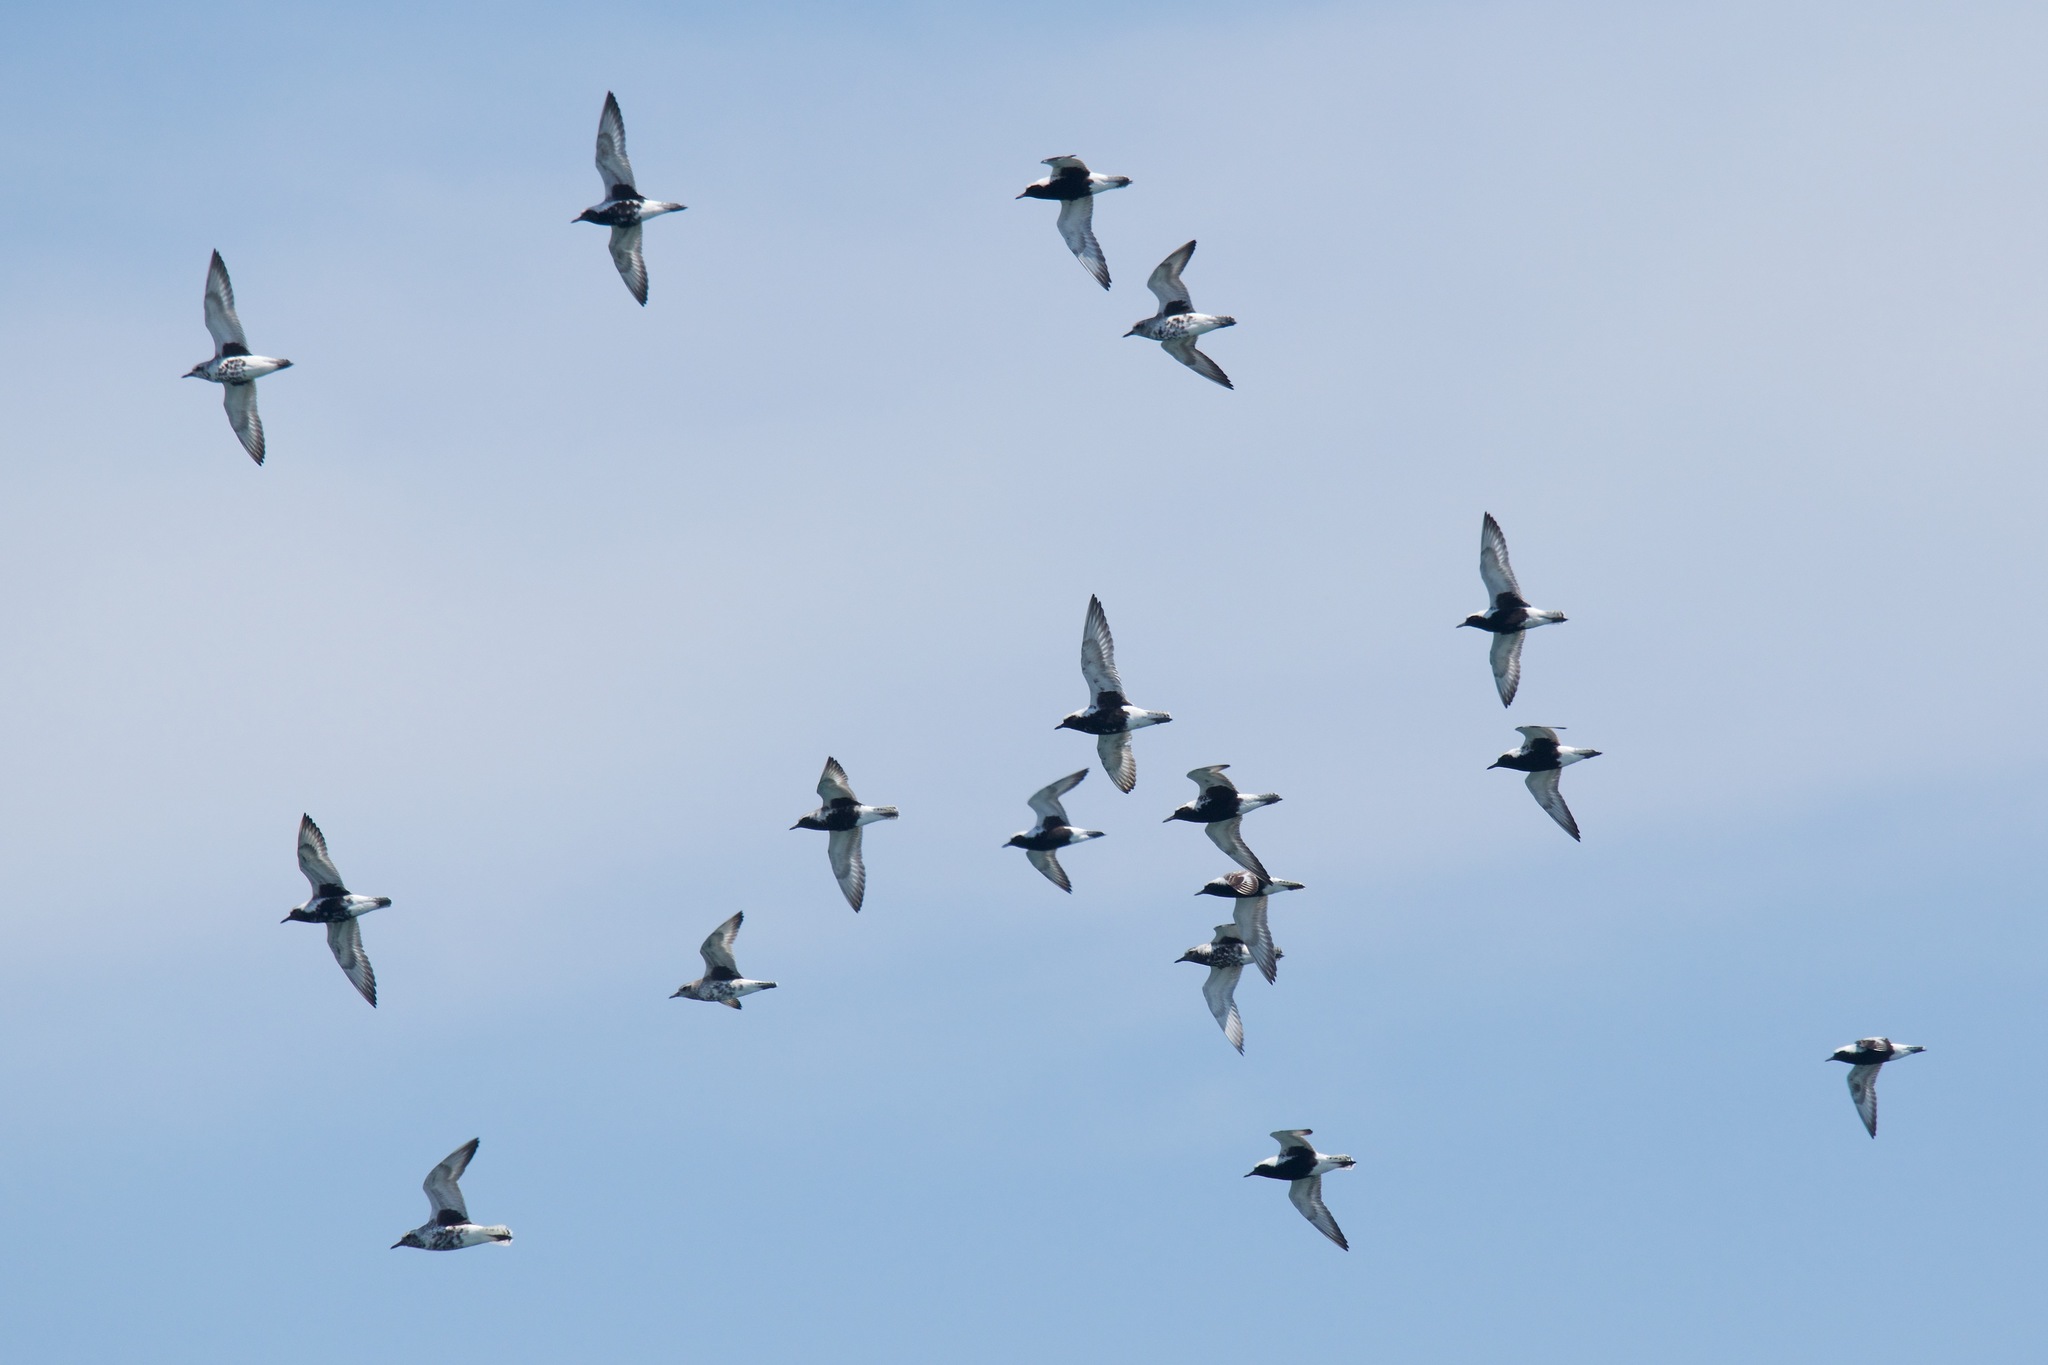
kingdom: Animalia
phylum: Chordata
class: Aves
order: Charadriiformes
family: Charadriidae
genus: Pluvialis
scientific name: Pluvialis squatarola
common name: Grey plover
